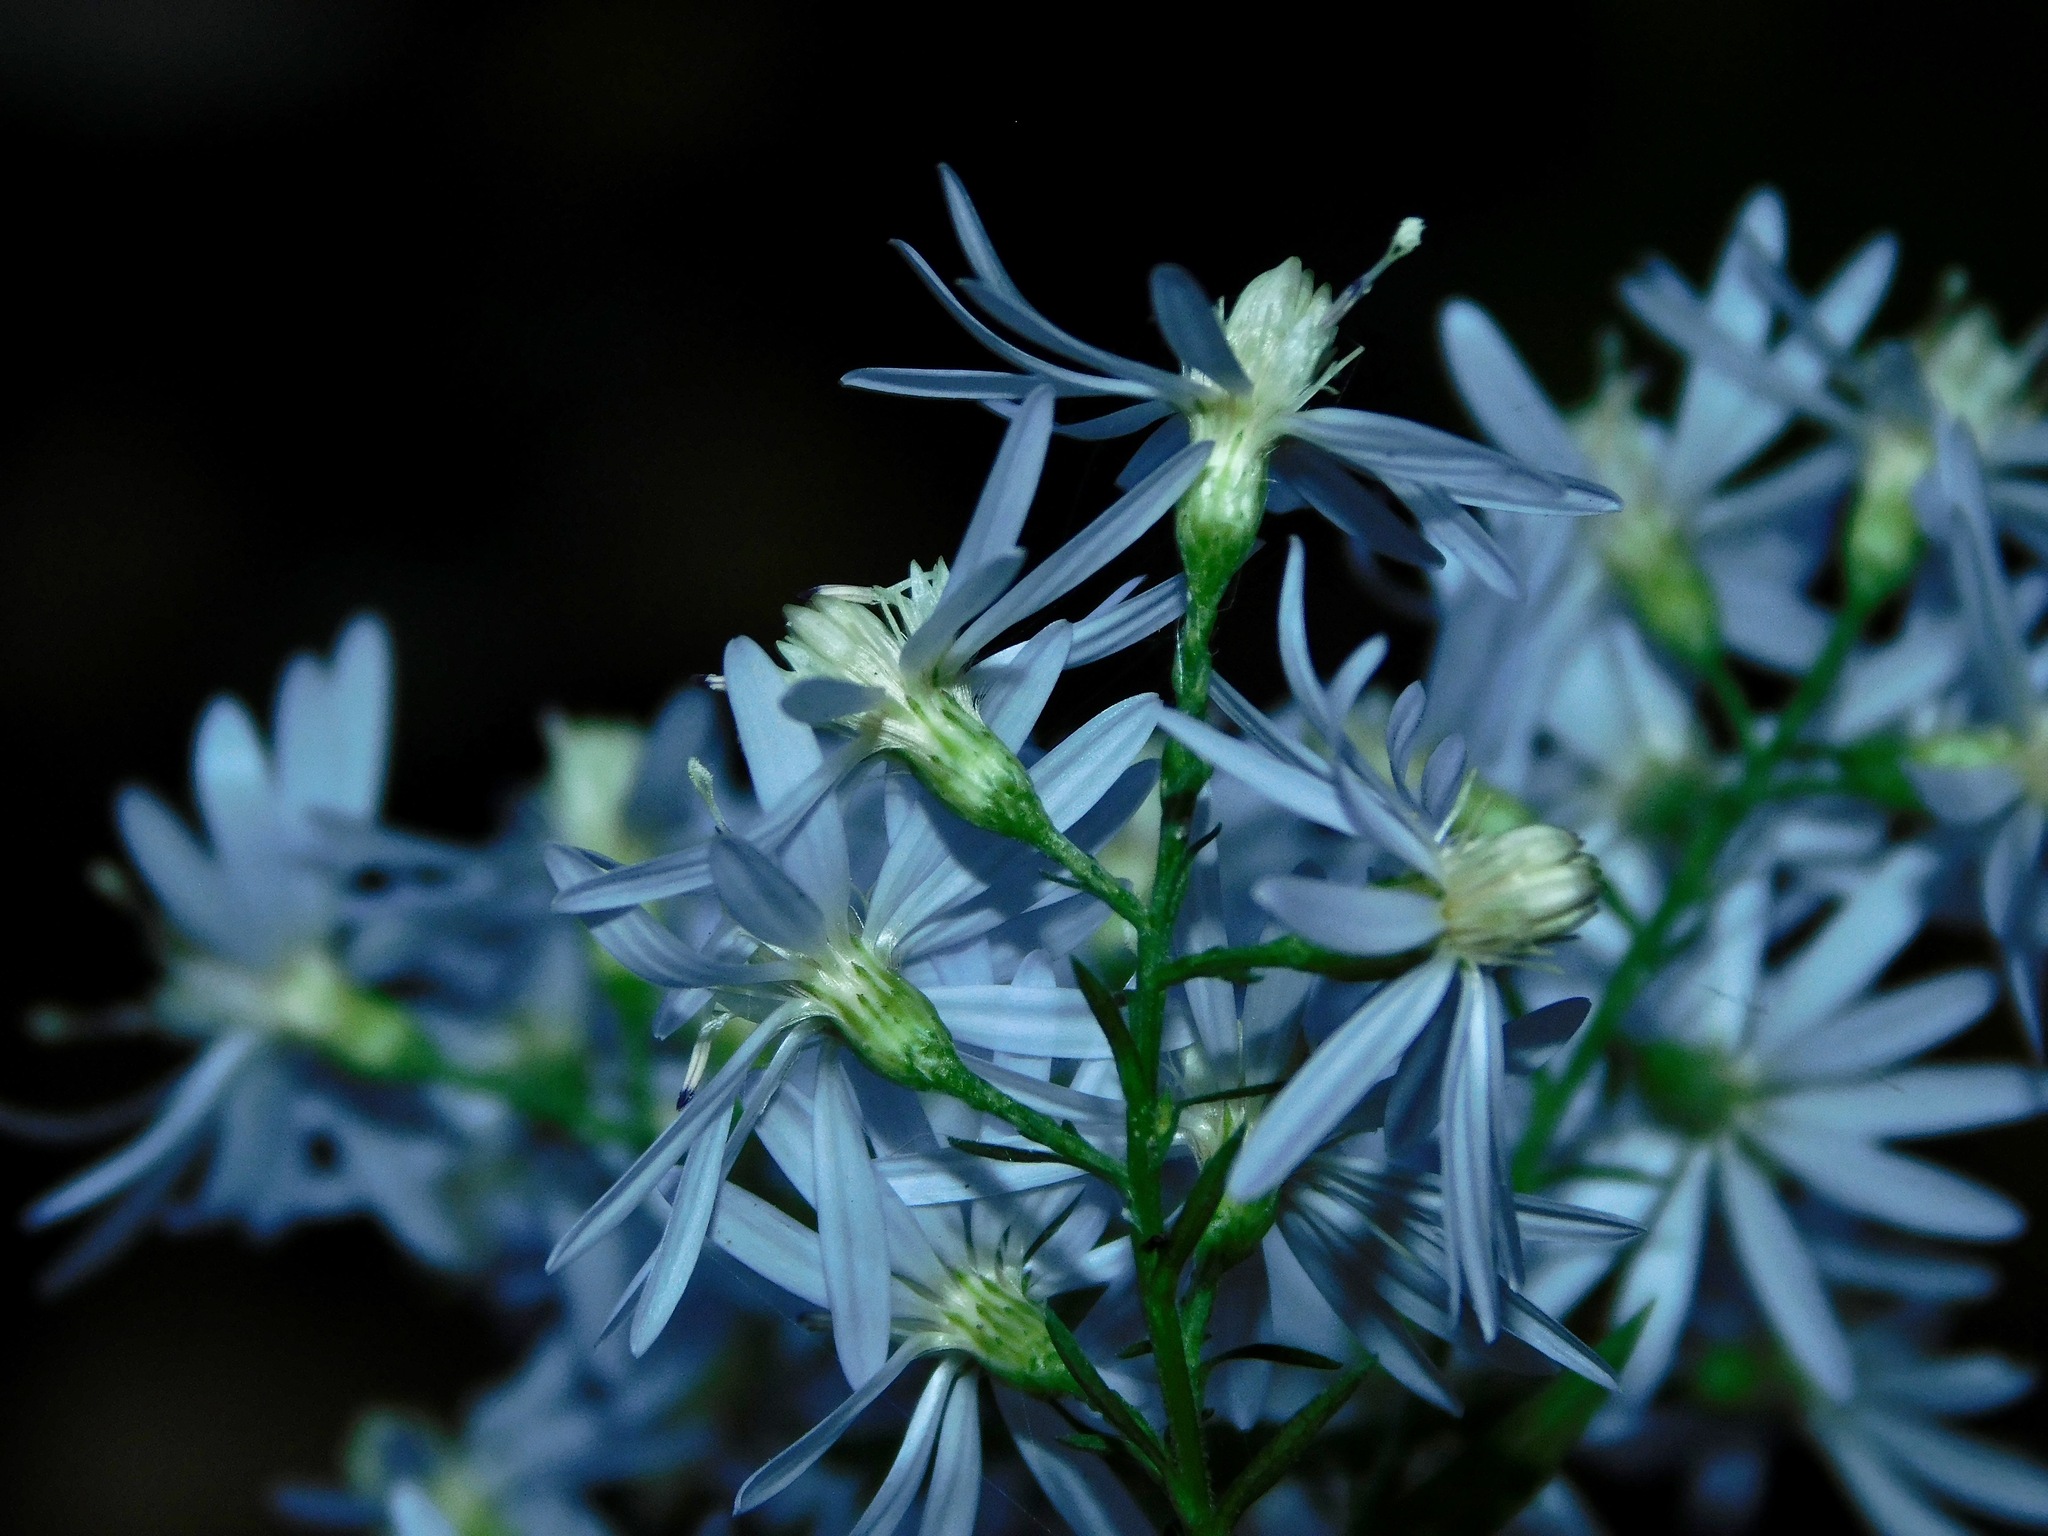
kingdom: Plantae
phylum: Tracheophyta
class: Magnoliopsida
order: Asterales
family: Asteraceae
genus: Symphyotrichum
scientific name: Symphyotrichum cordifolium
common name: Beeweed
